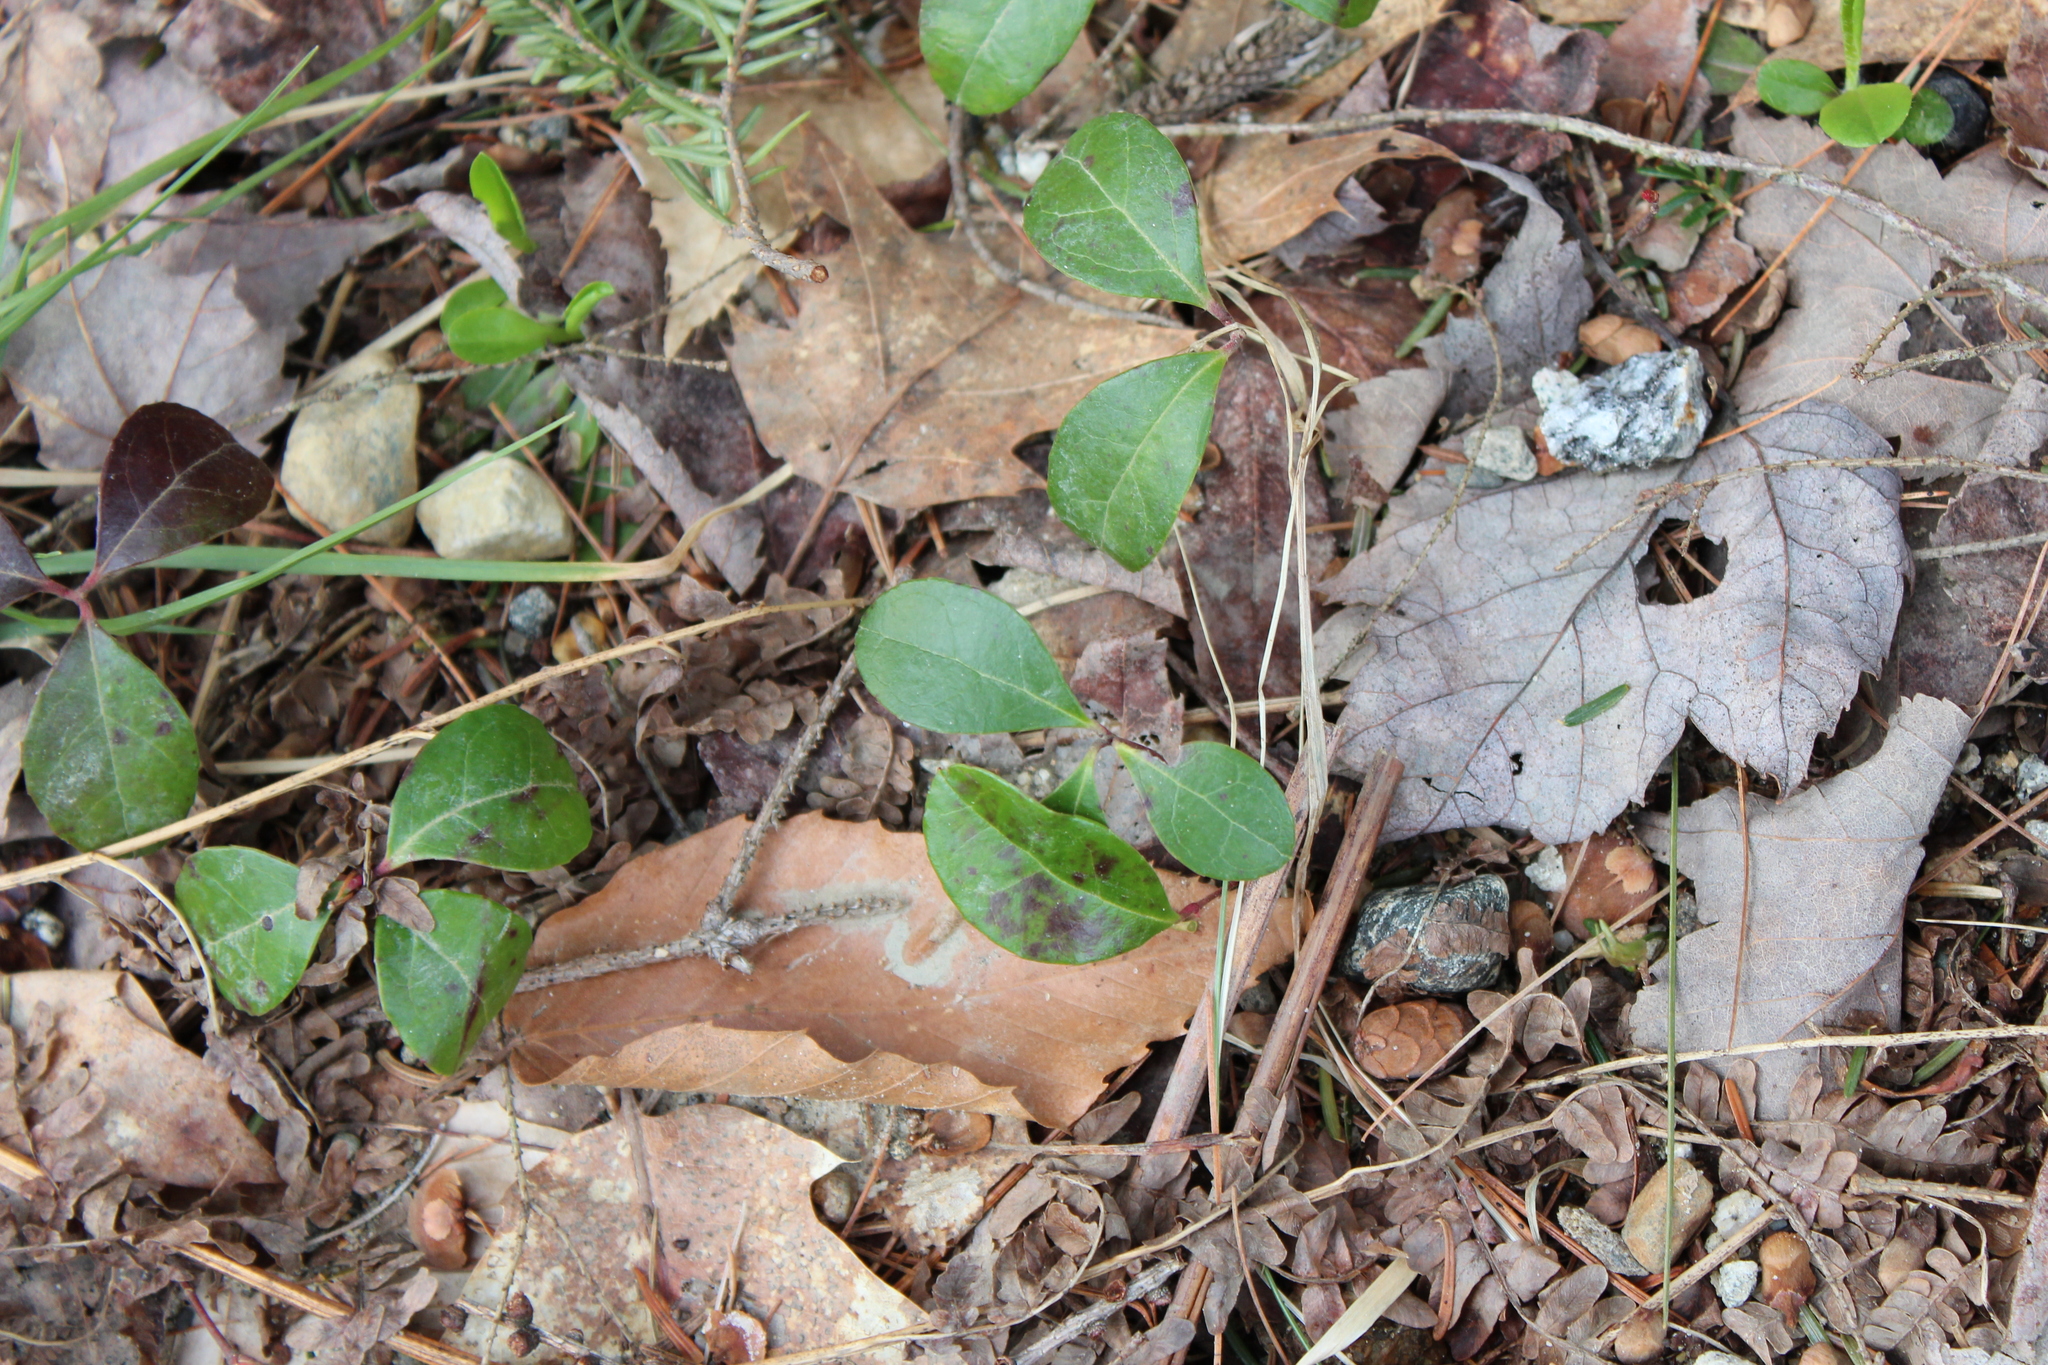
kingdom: Plantae
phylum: Tracheophyta
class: Magnoliopsida
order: Ericales
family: Ericaceae
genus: Gaultheria
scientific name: Gaultheria procumbens
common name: Checkerberry
